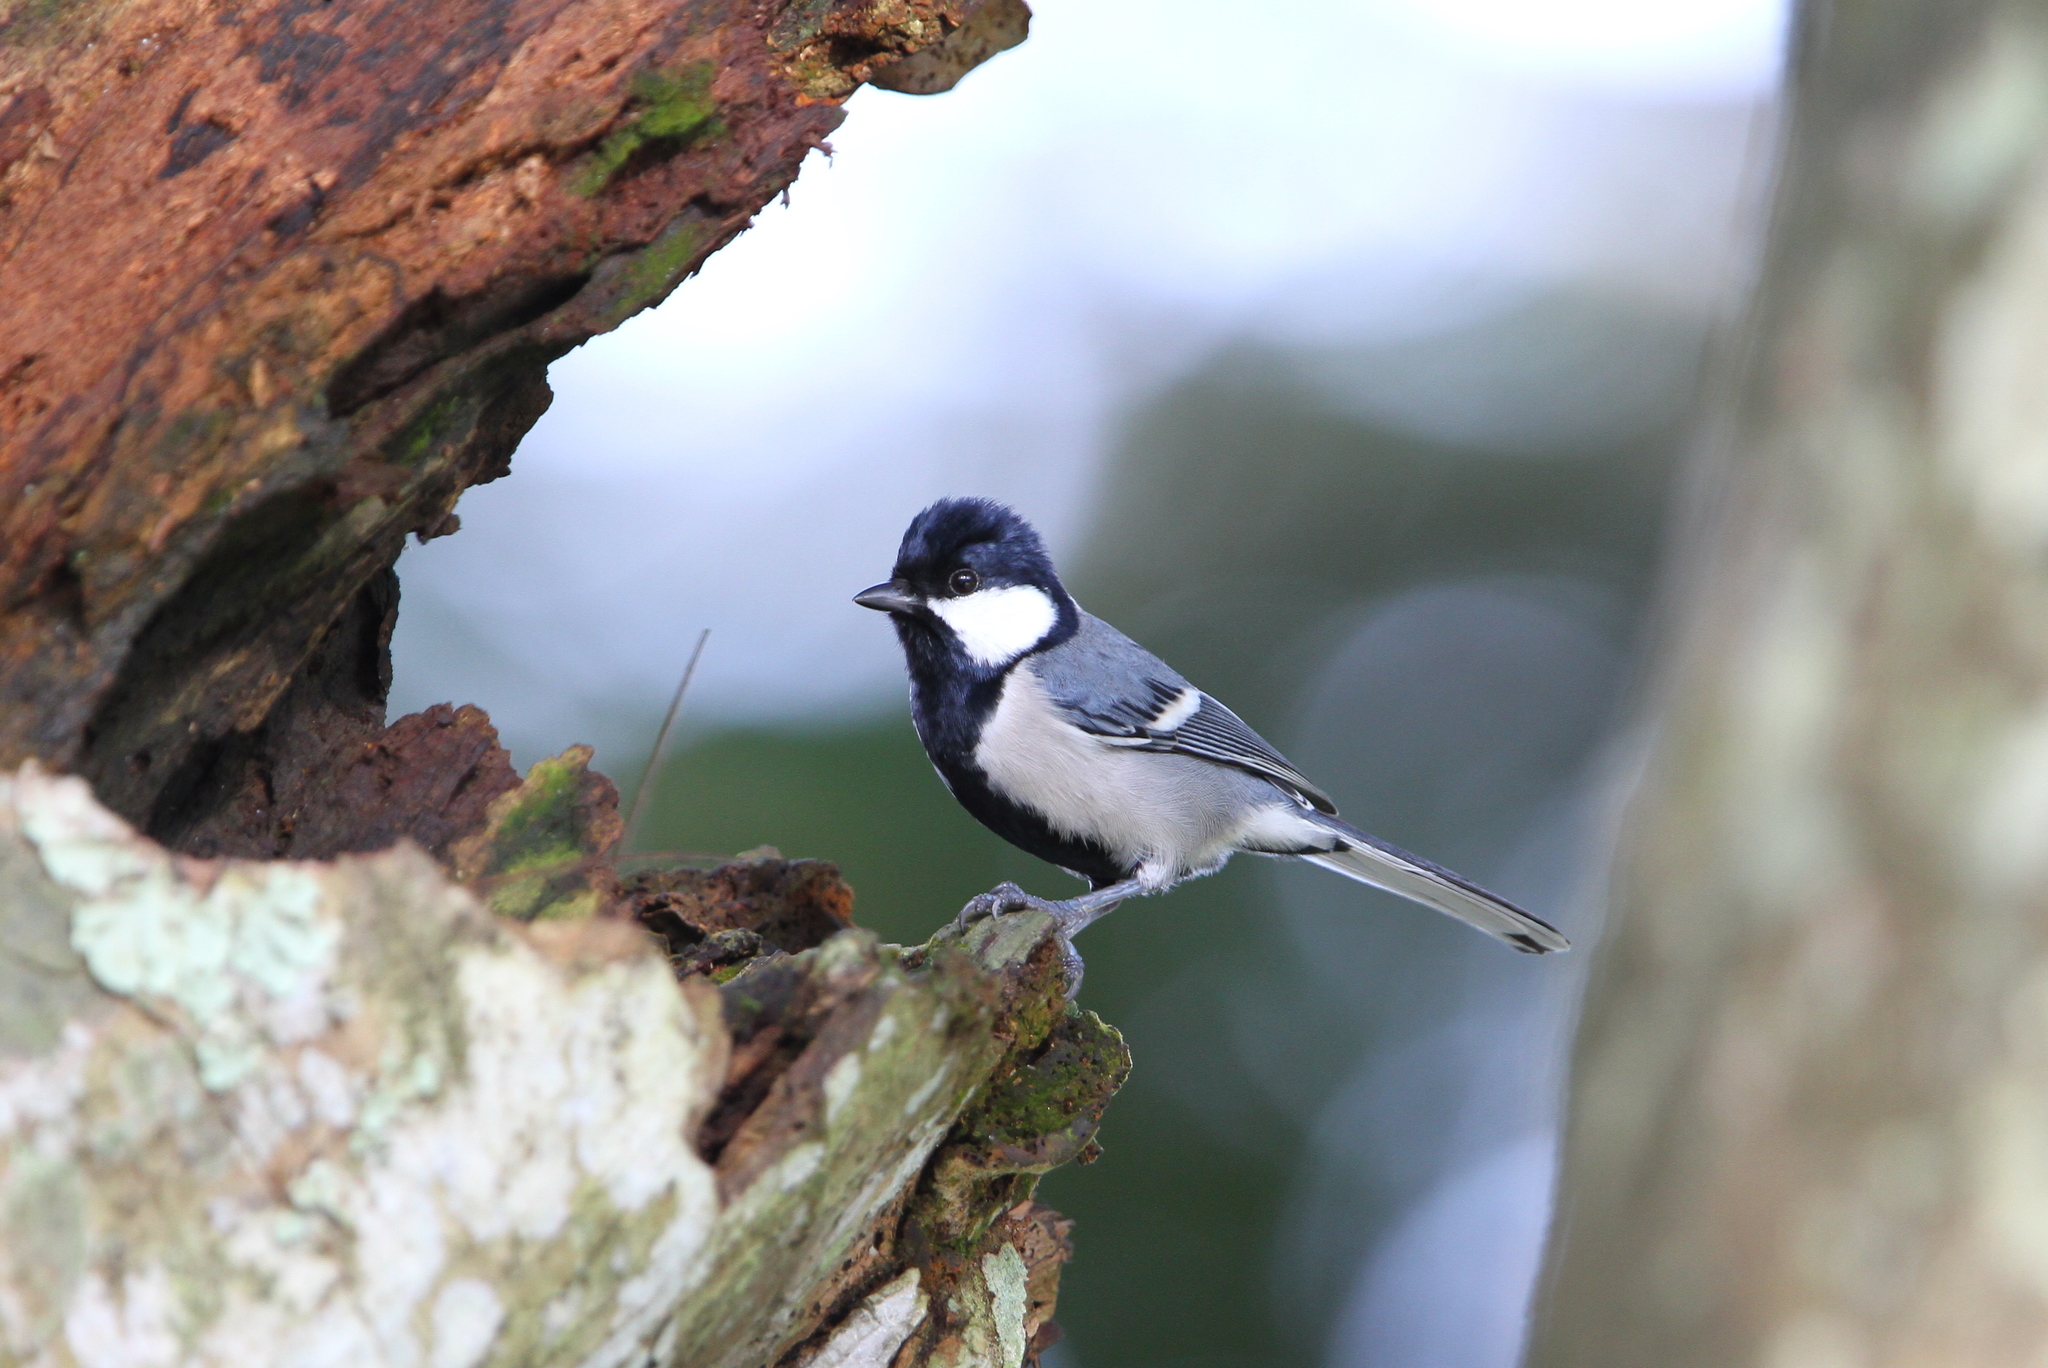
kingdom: Animalia
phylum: Chordata
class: Aves
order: Passeriformes
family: Paridae
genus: Parus
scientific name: Parus cinereus
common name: Cinereous tit
